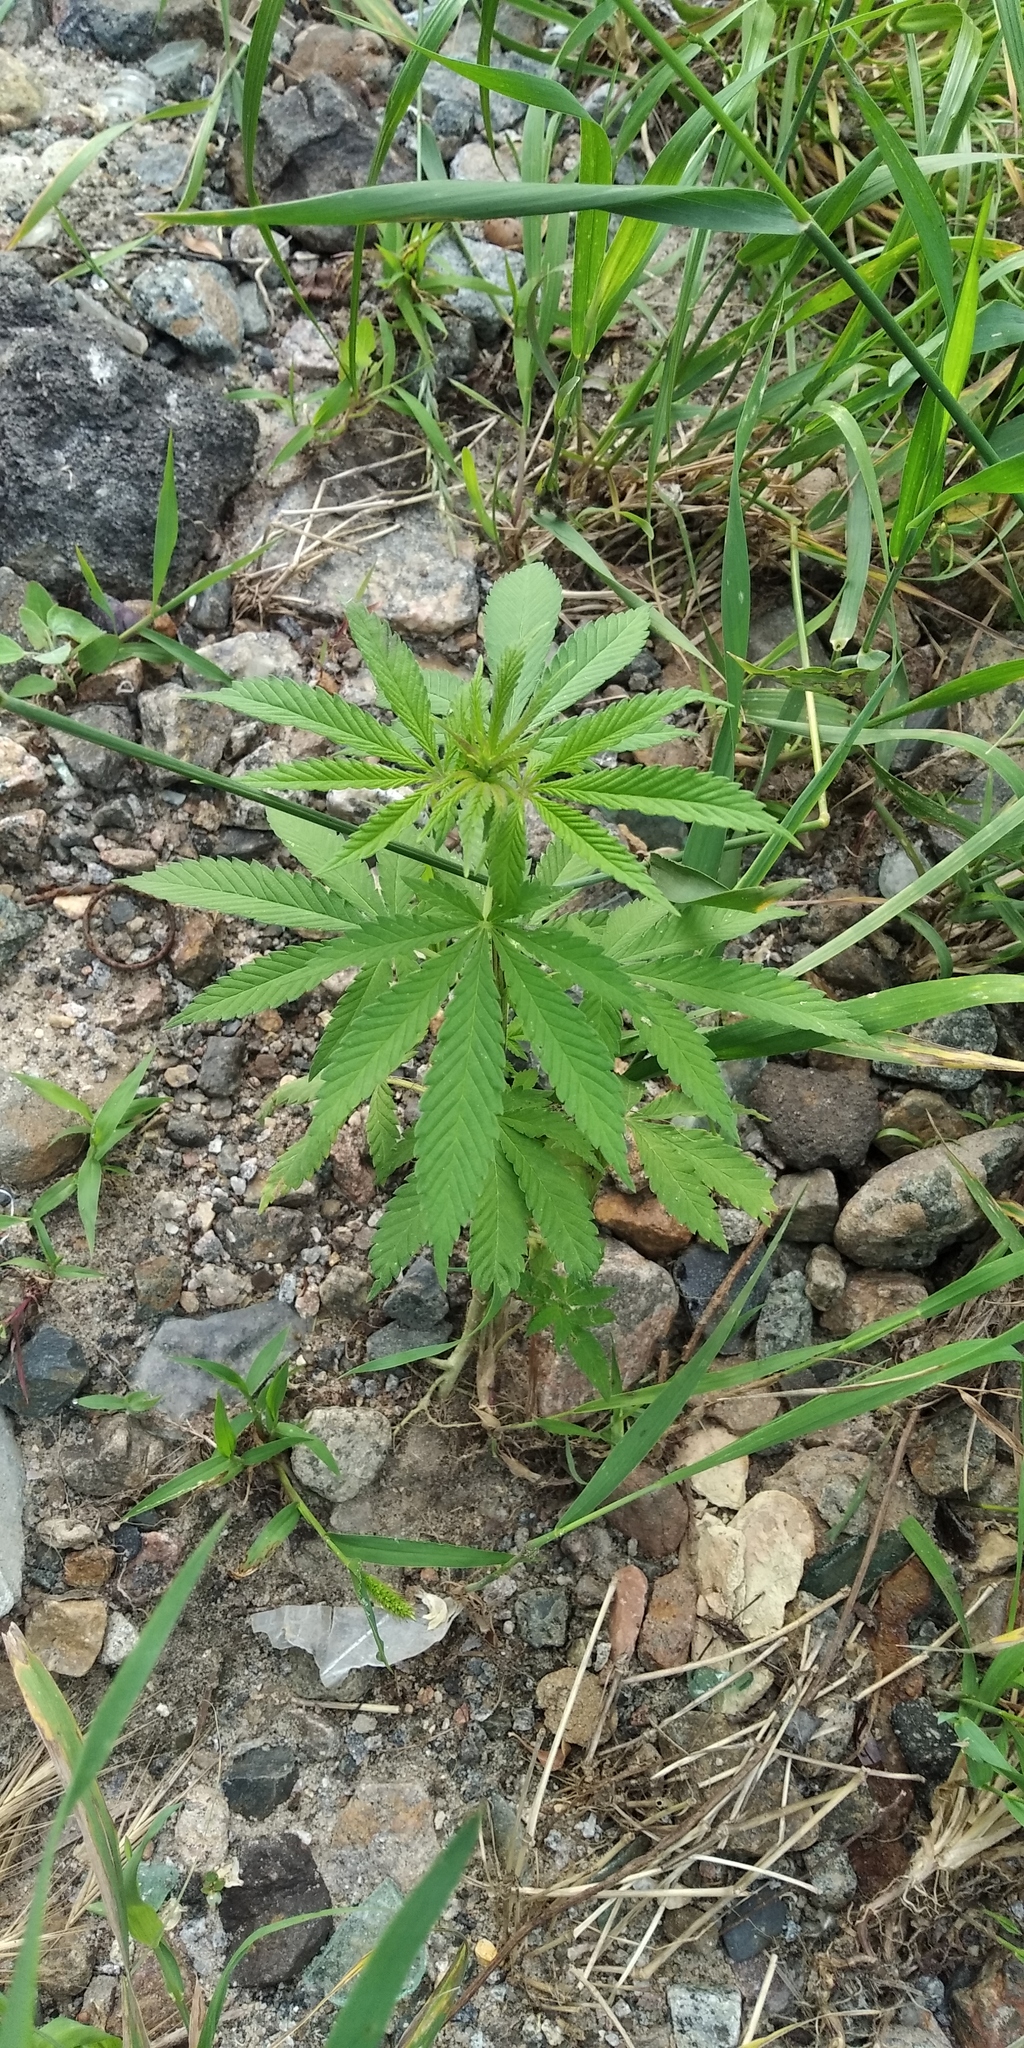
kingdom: Plantae
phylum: Tracheophyta
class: Magnoliopsida
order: Rosales
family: Cannabaceae
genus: Cannabis
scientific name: Cannabis sativa
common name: Hemp
